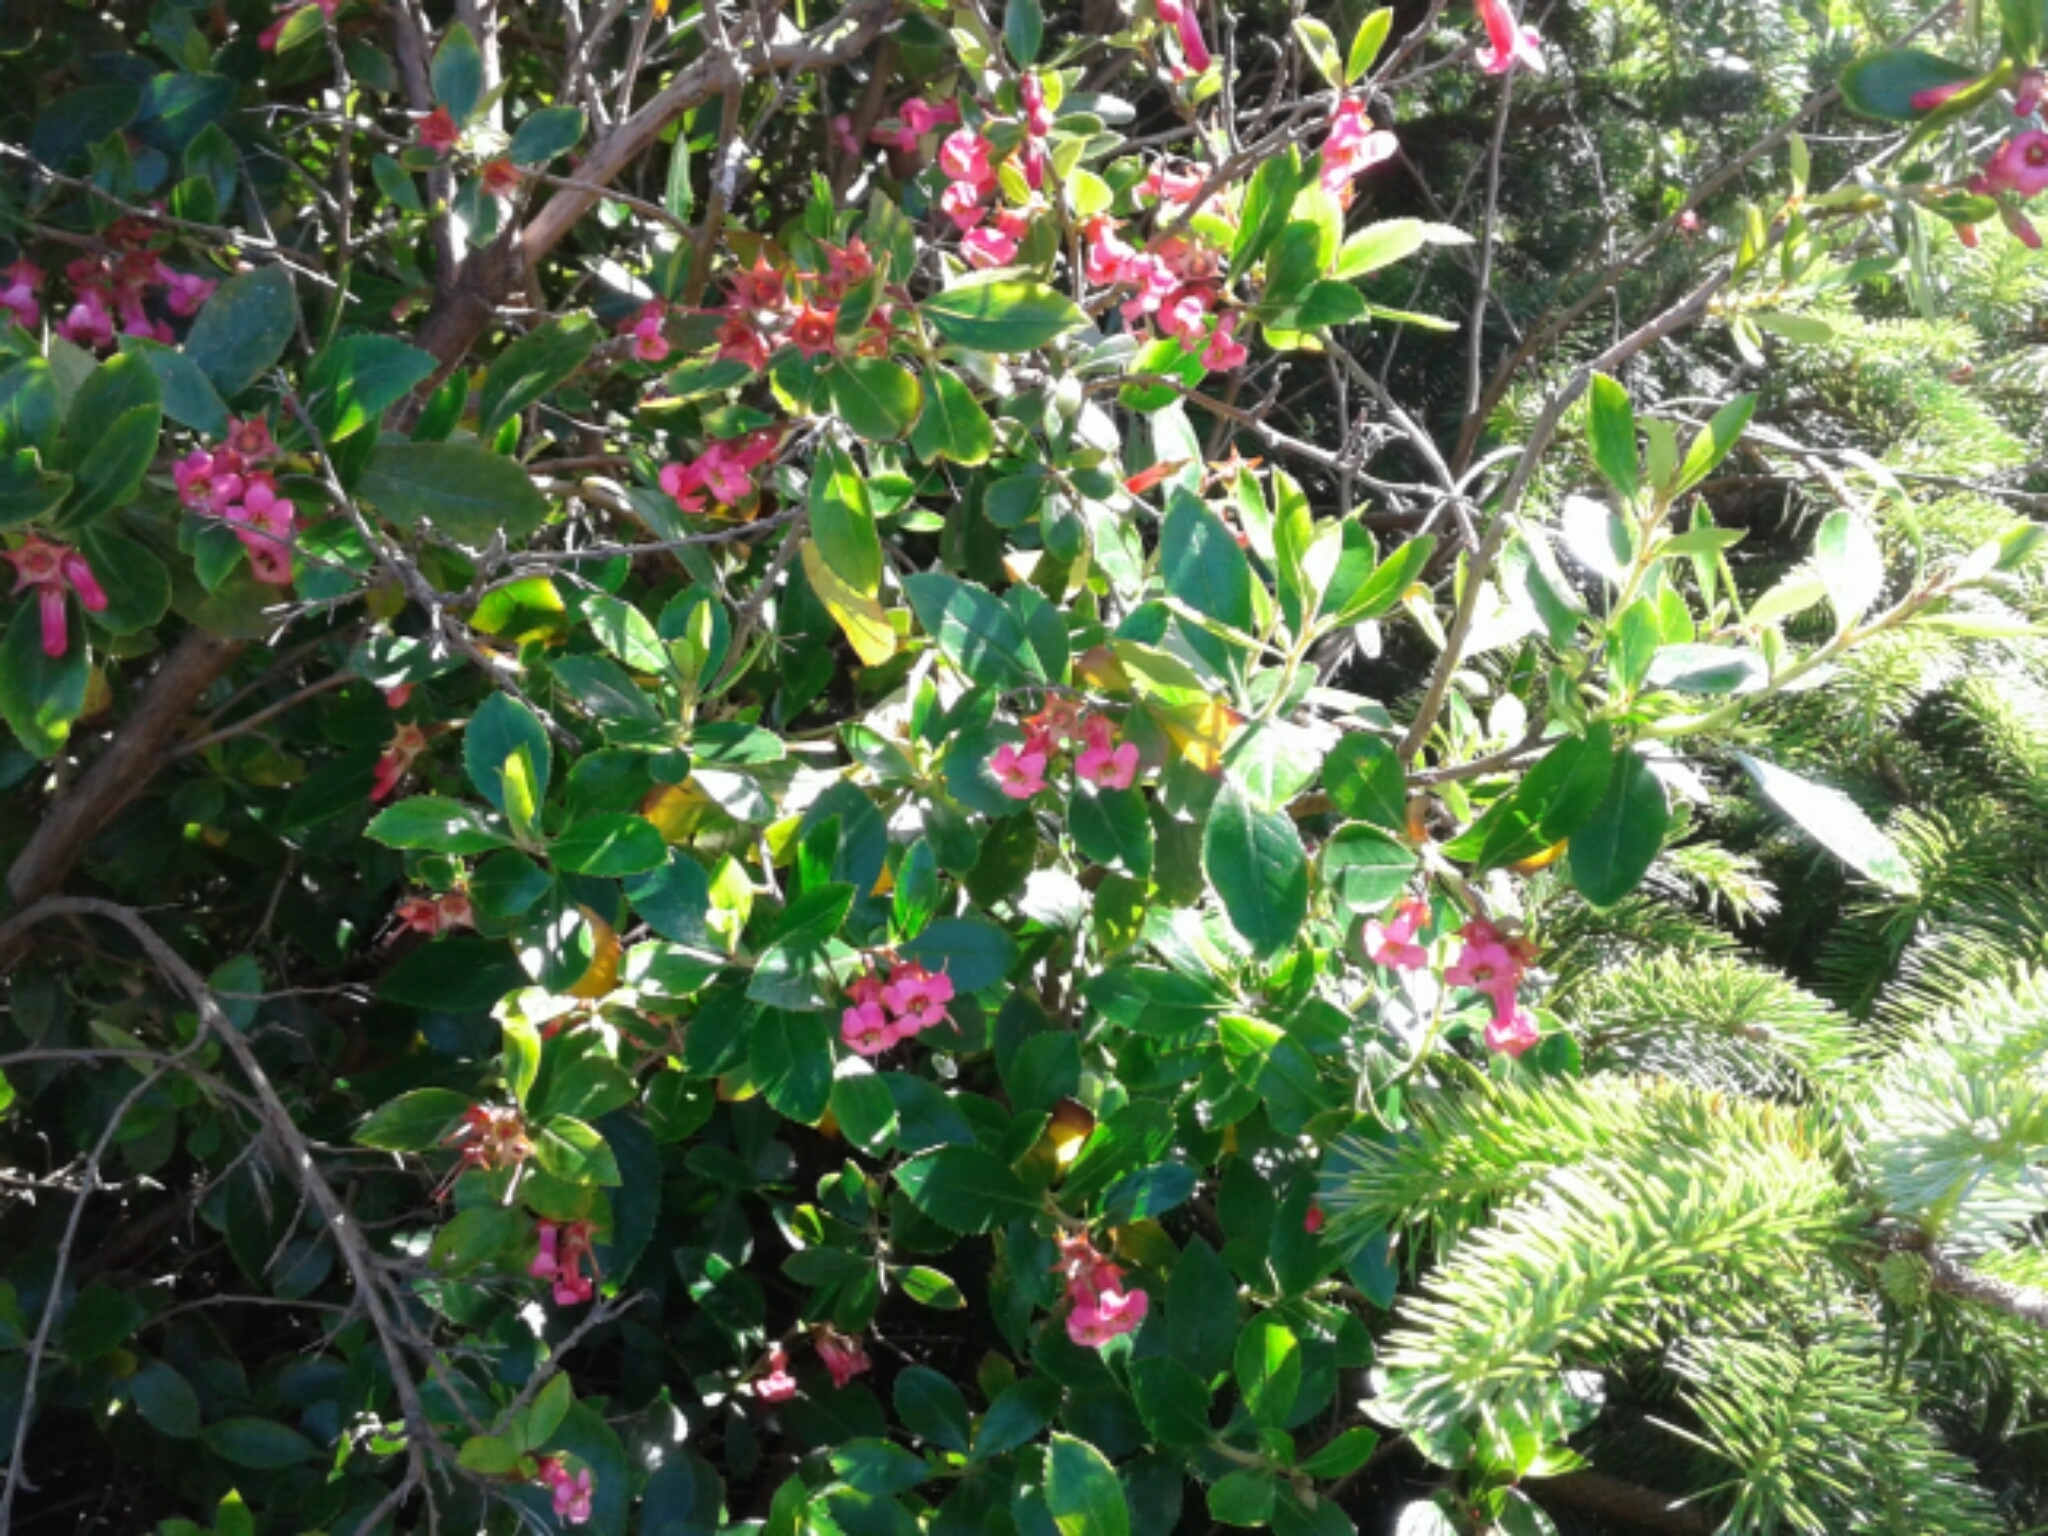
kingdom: Plantae
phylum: Tracheophyta
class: Magnoliopsida
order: Escalloniales
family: Escalloniaceae
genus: Escallonia
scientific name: Escallonia rubra
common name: Redclaws
